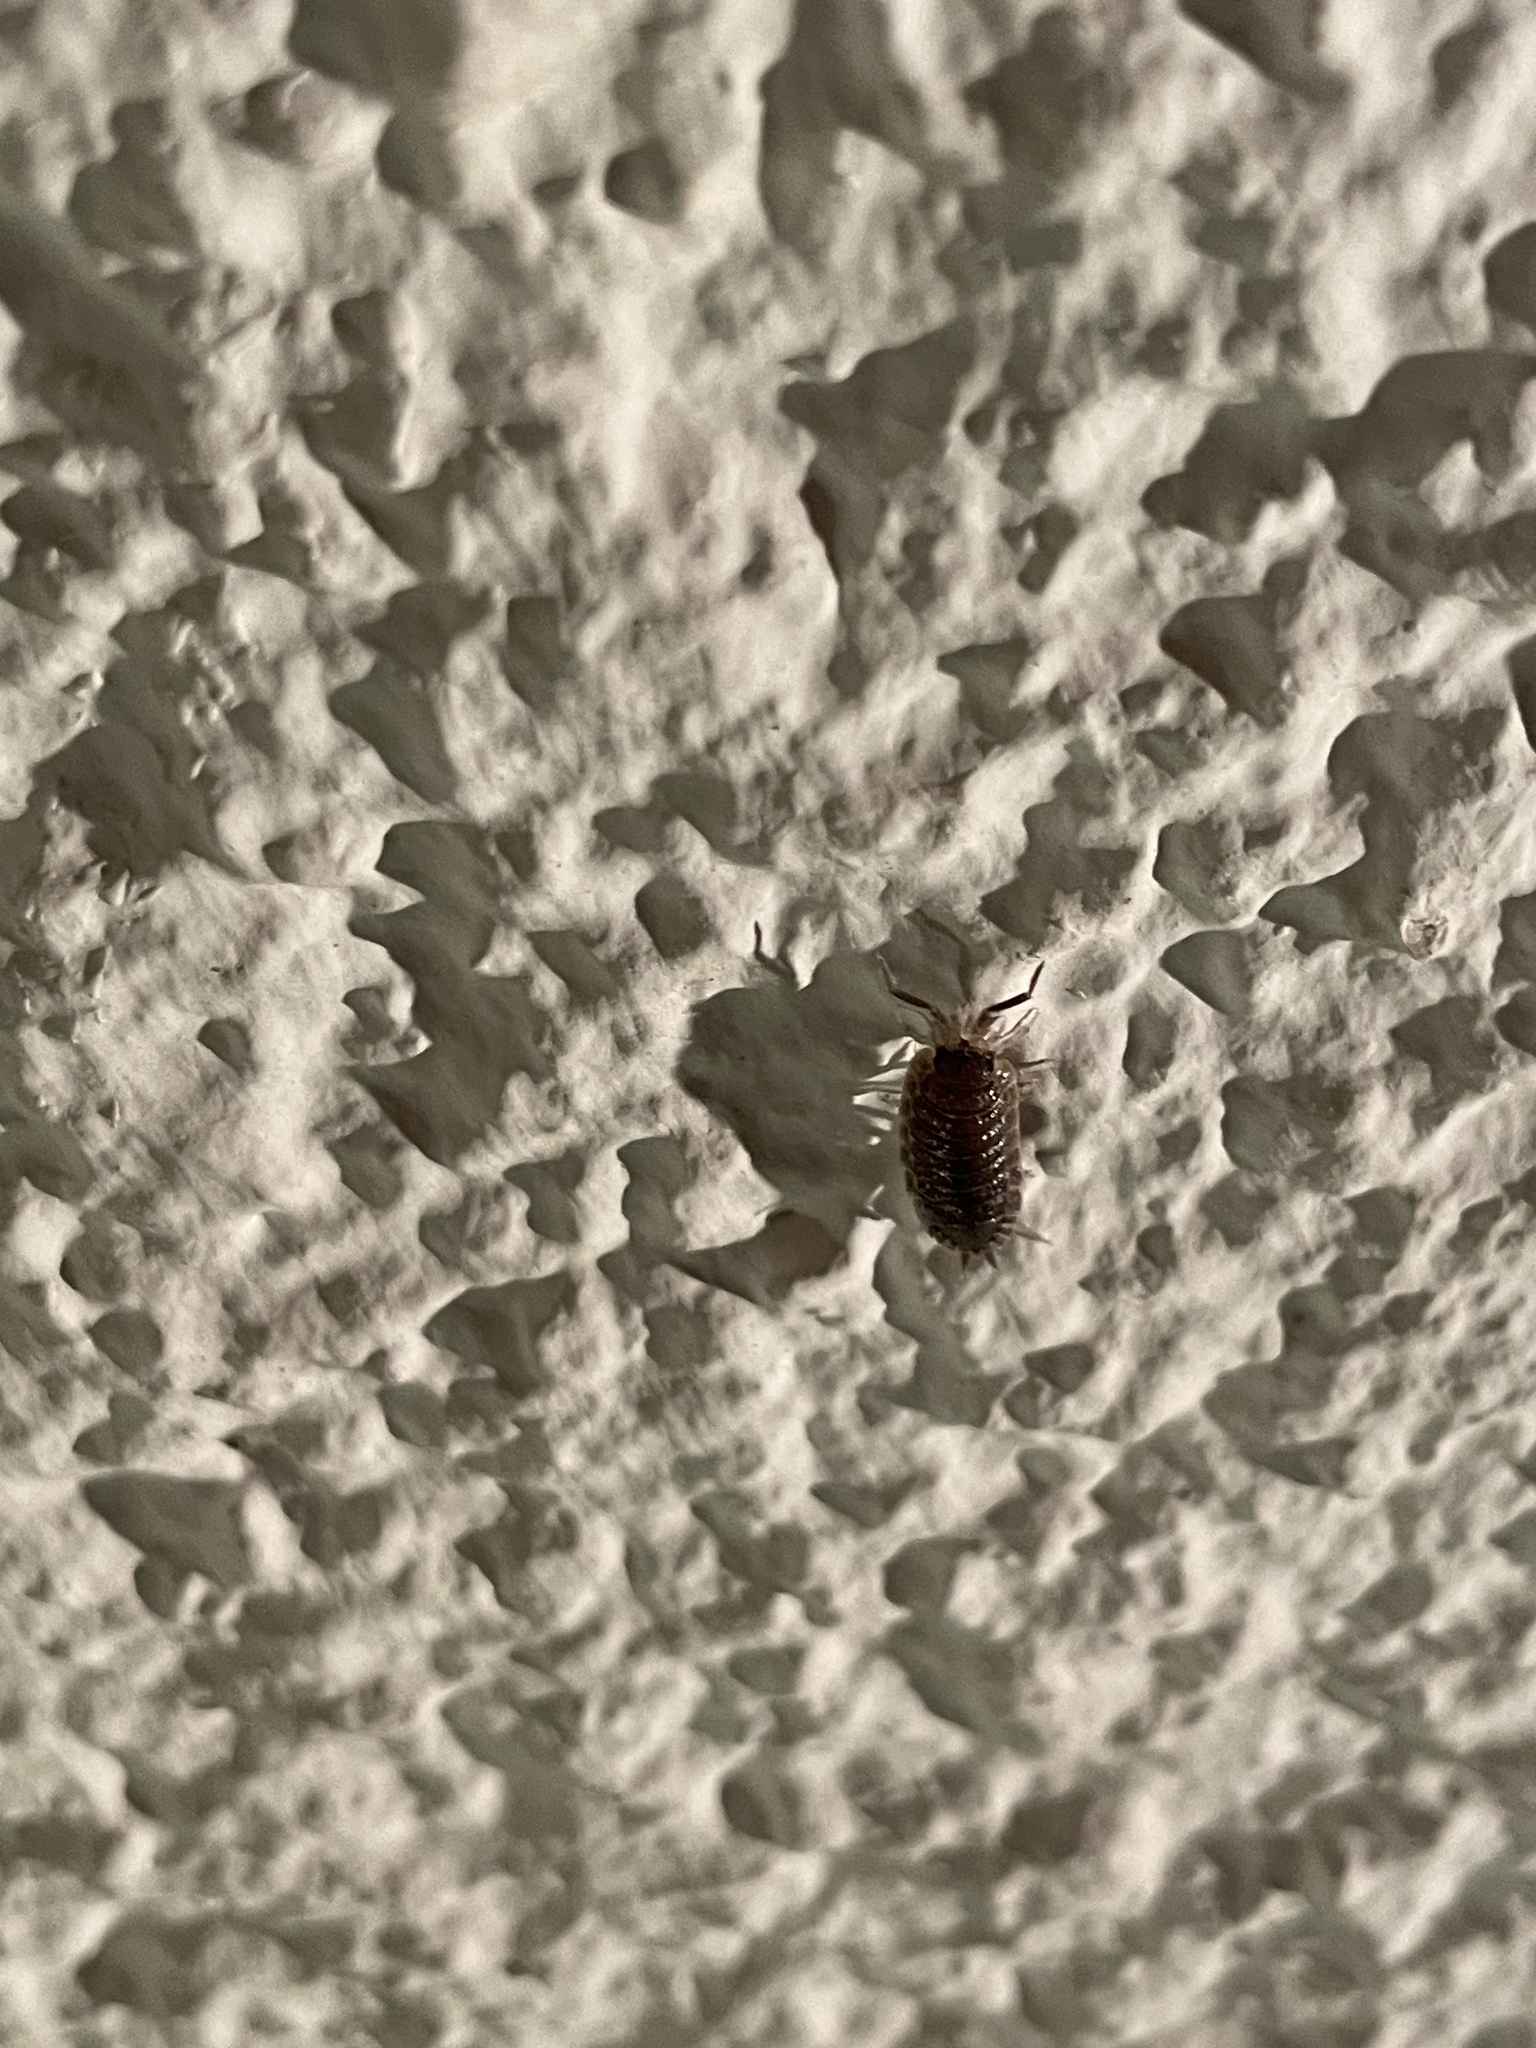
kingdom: Animalia
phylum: Arthropoda
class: Malacostraca
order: Isopoda
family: Porcellionidae
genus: Porcellio
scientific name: Porcellio scaber
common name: Common rough woodlouse
